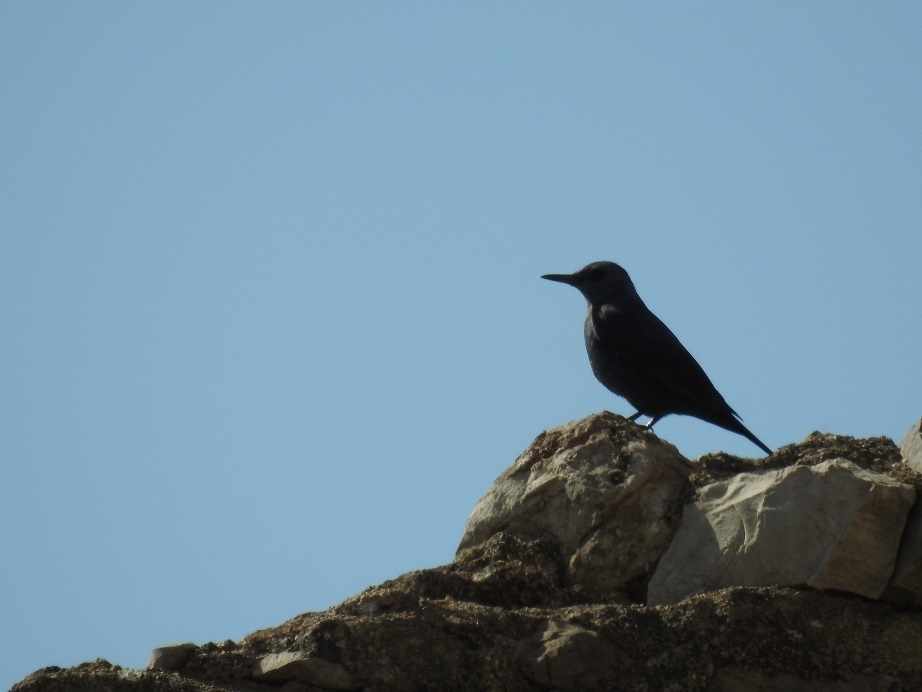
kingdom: Animalia
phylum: Chordata
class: Aves
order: Passeriformes
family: Muscicapidae
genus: Monticola
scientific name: Monticola solitarius
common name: Blue rock thrush
